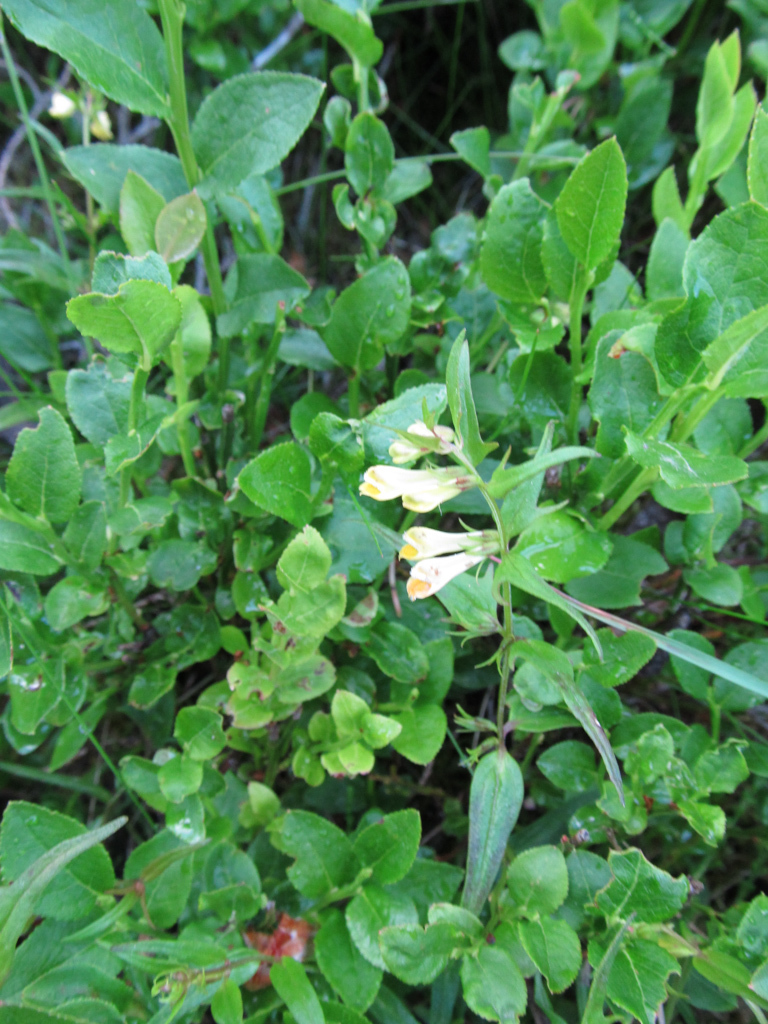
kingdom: Plantae
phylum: Tracheophyta
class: Magnoliopsida
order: Lamiales
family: Orobanchaceae
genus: Melampyrum
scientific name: Melampyrum pratense
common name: Common cow-wheat
